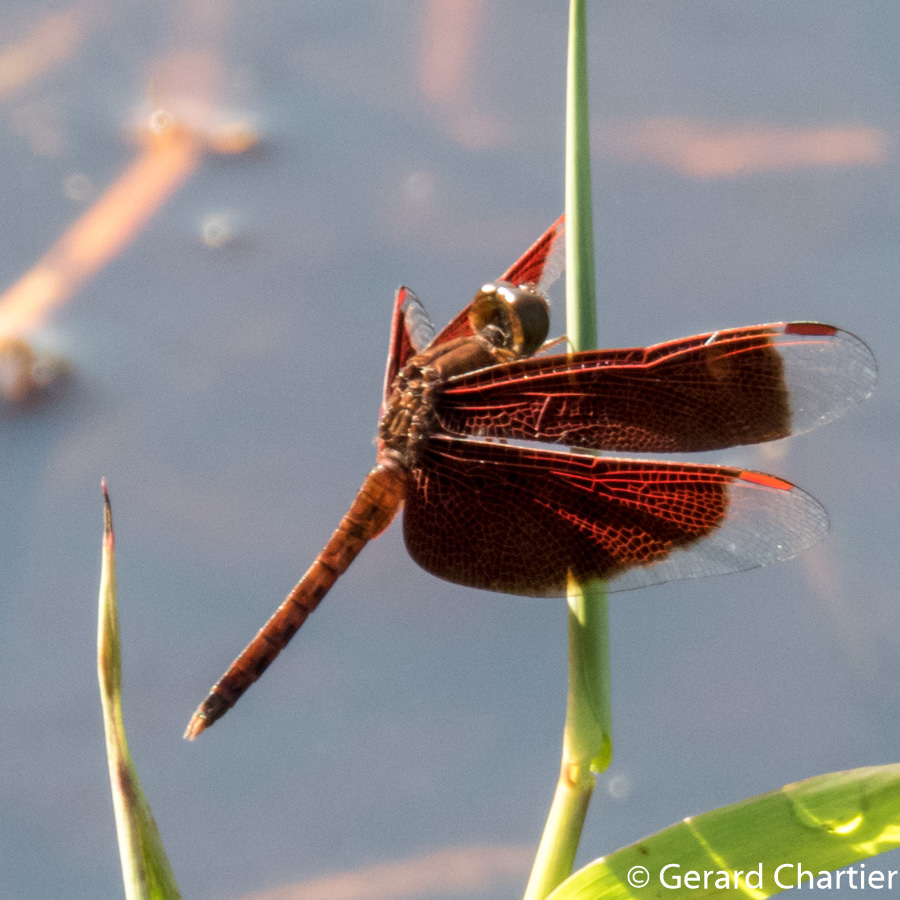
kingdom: Animalia
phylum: Arthropoda
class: Insecta
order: Odonata
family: Libellulidae
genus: Neurothemis
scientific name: Neurothemis fluctuans
